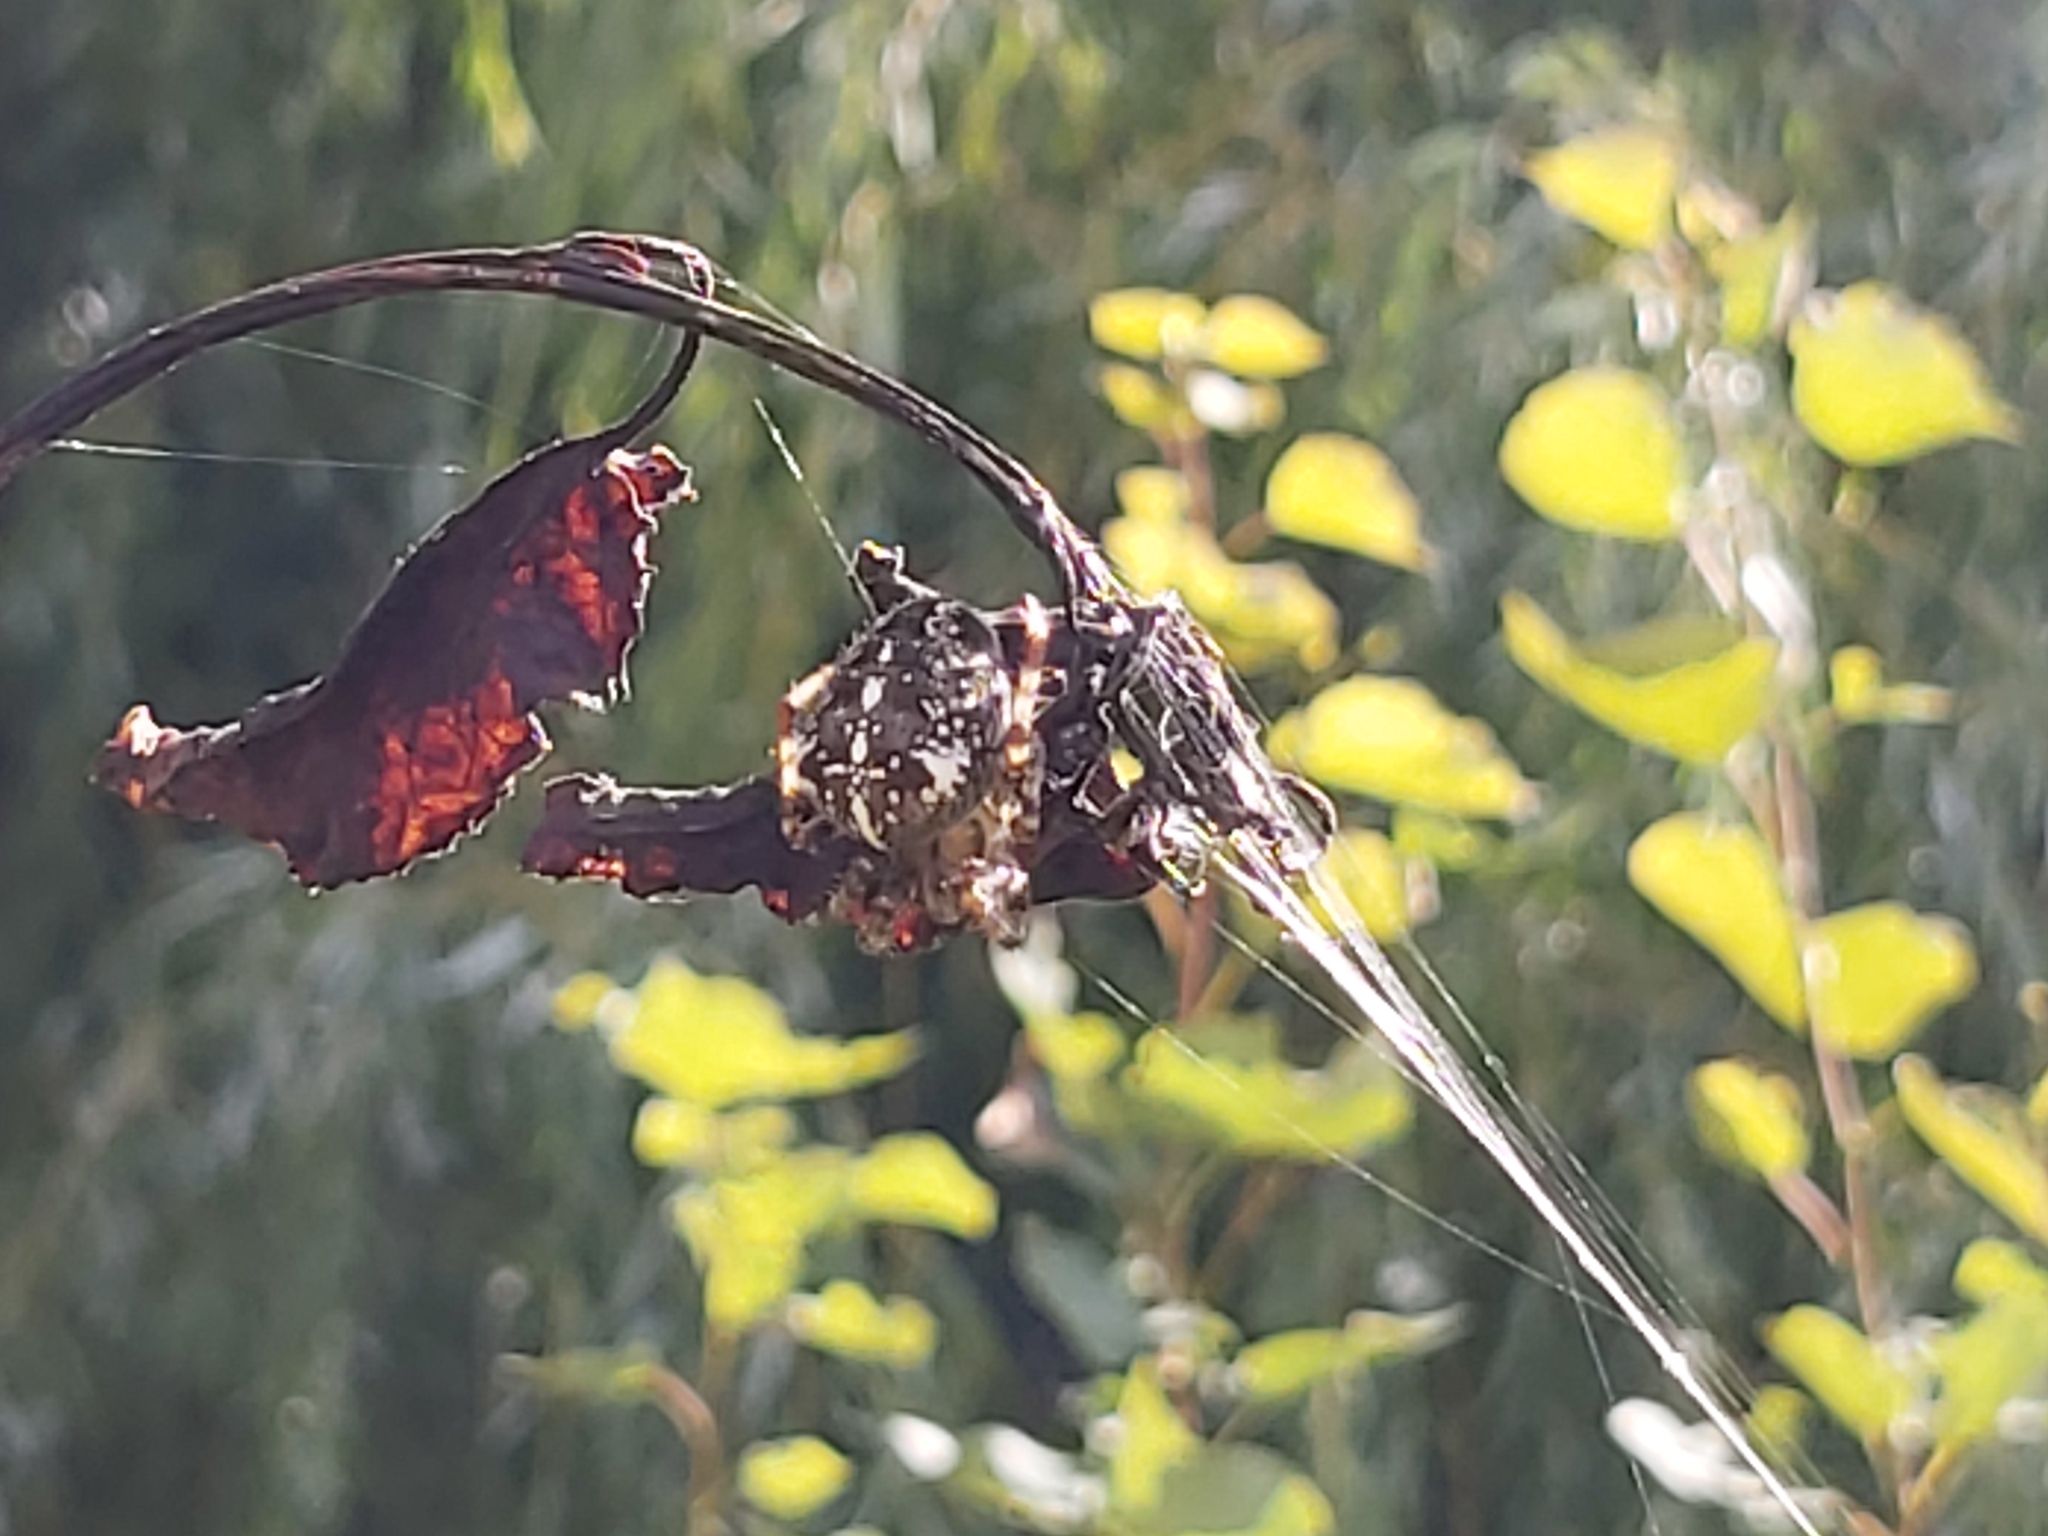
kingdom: Animalia
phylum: Arthropoda
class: Arachnida
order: Araneae
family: Araneidae
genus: Araneus
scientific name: Araneus diadematus
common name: Cross orbweaver
